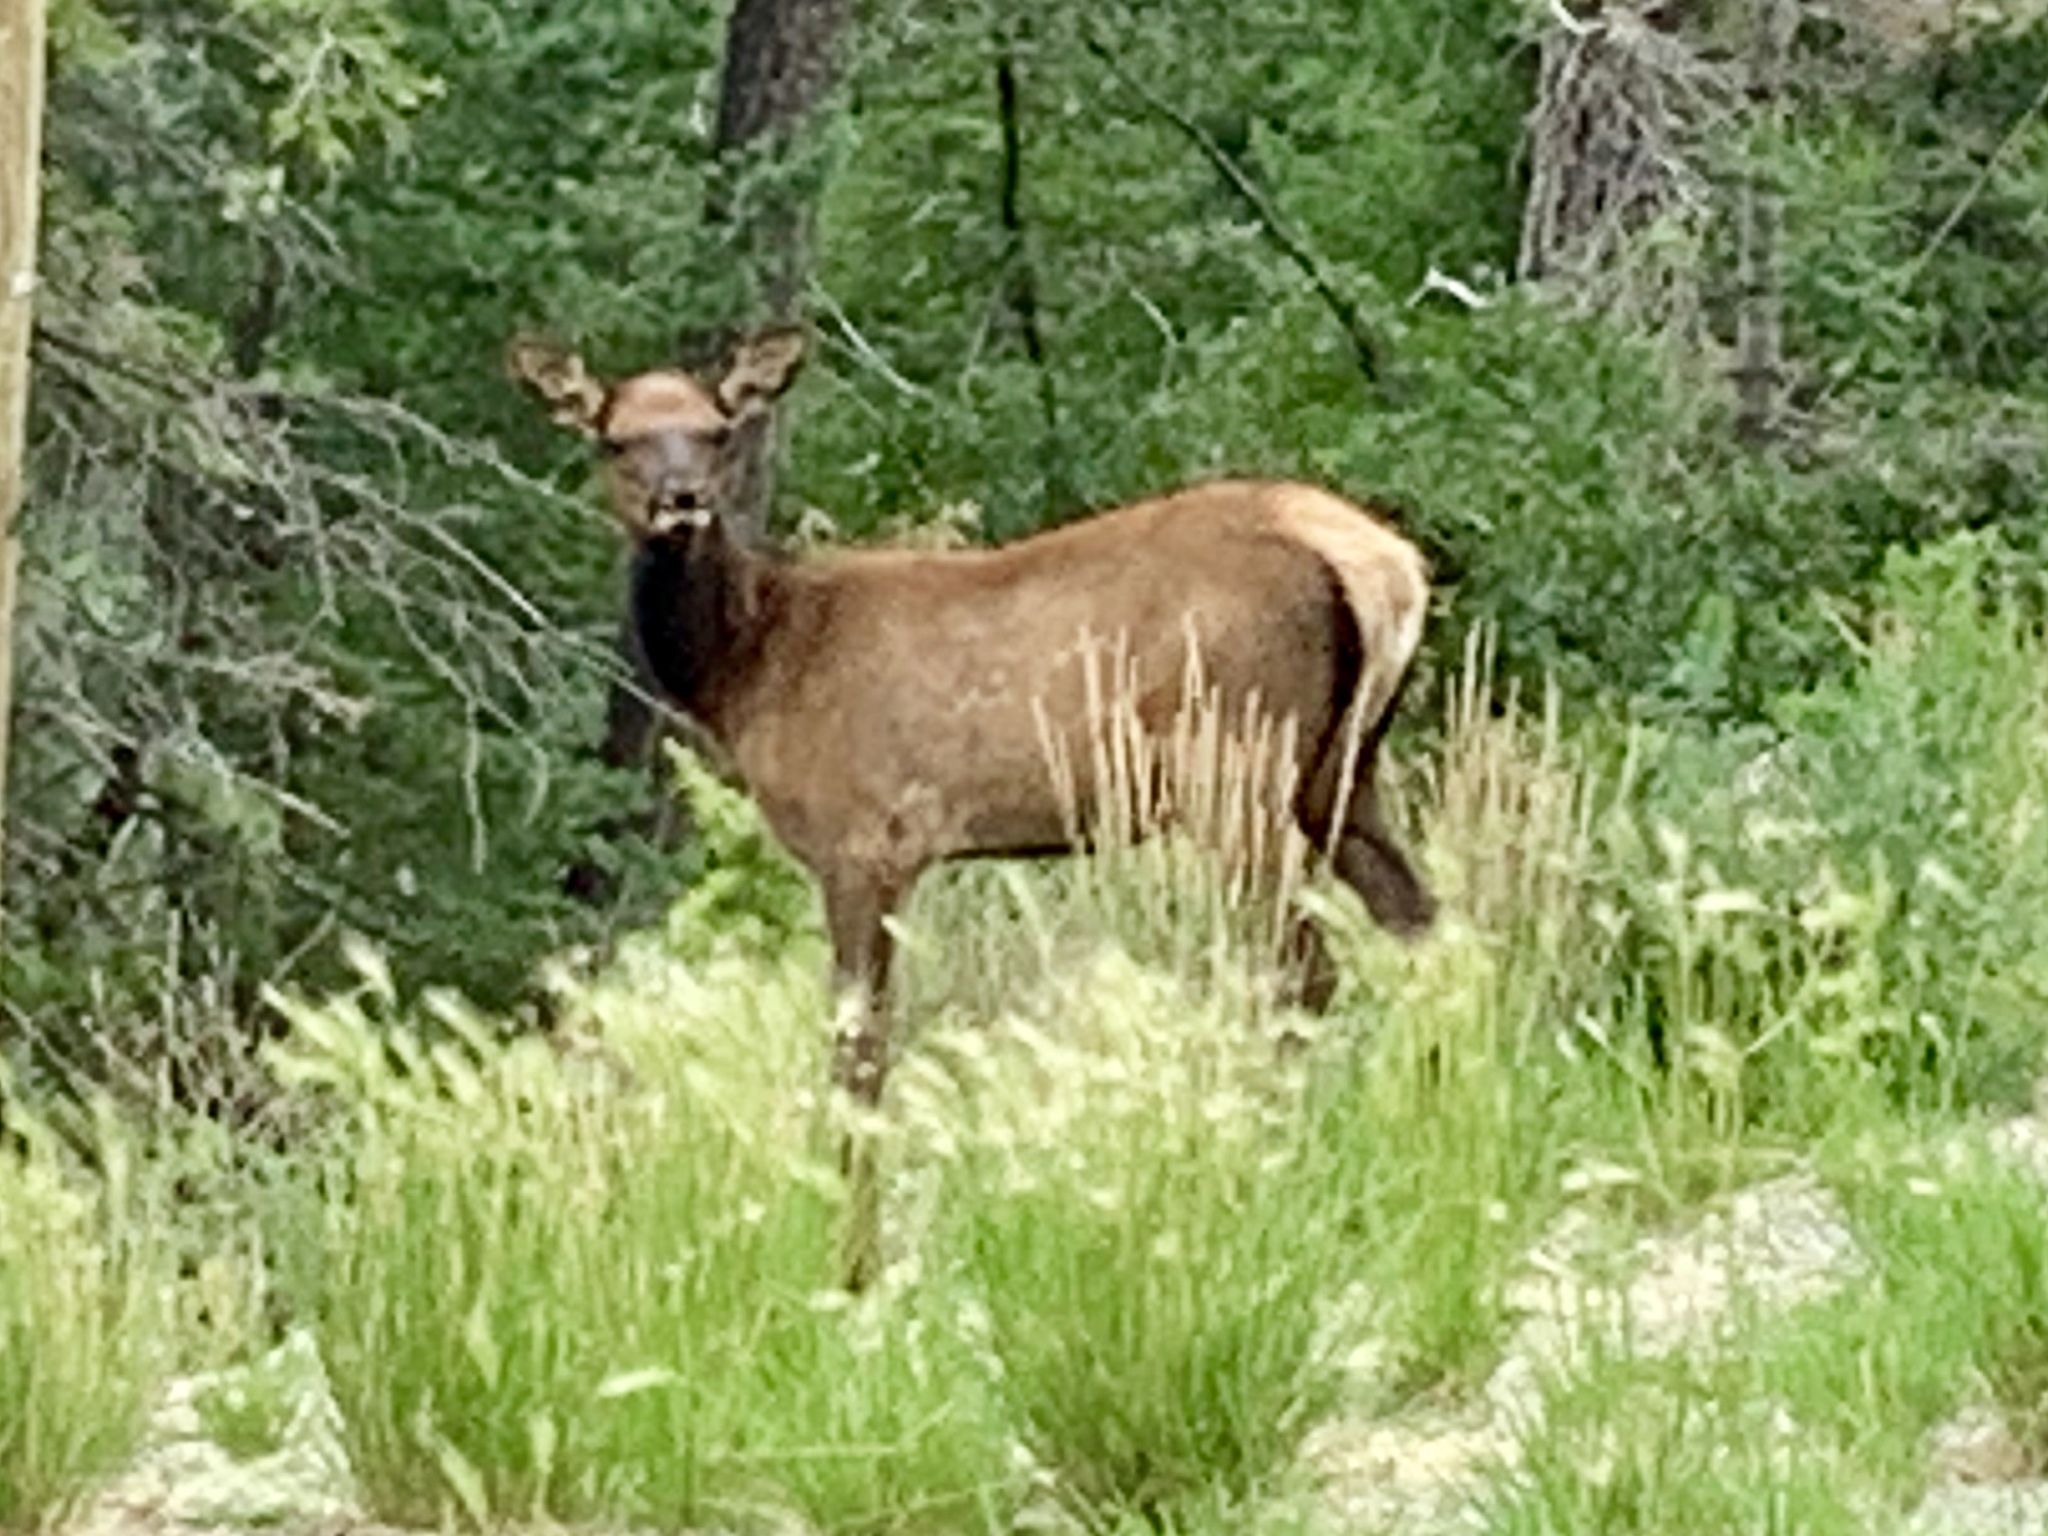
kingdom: Animalia
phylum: Chordata
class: Mammalia
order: Artiodactyla
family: Cervidae
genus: Cervus
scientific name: Cervus elaphus
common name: Red deer
